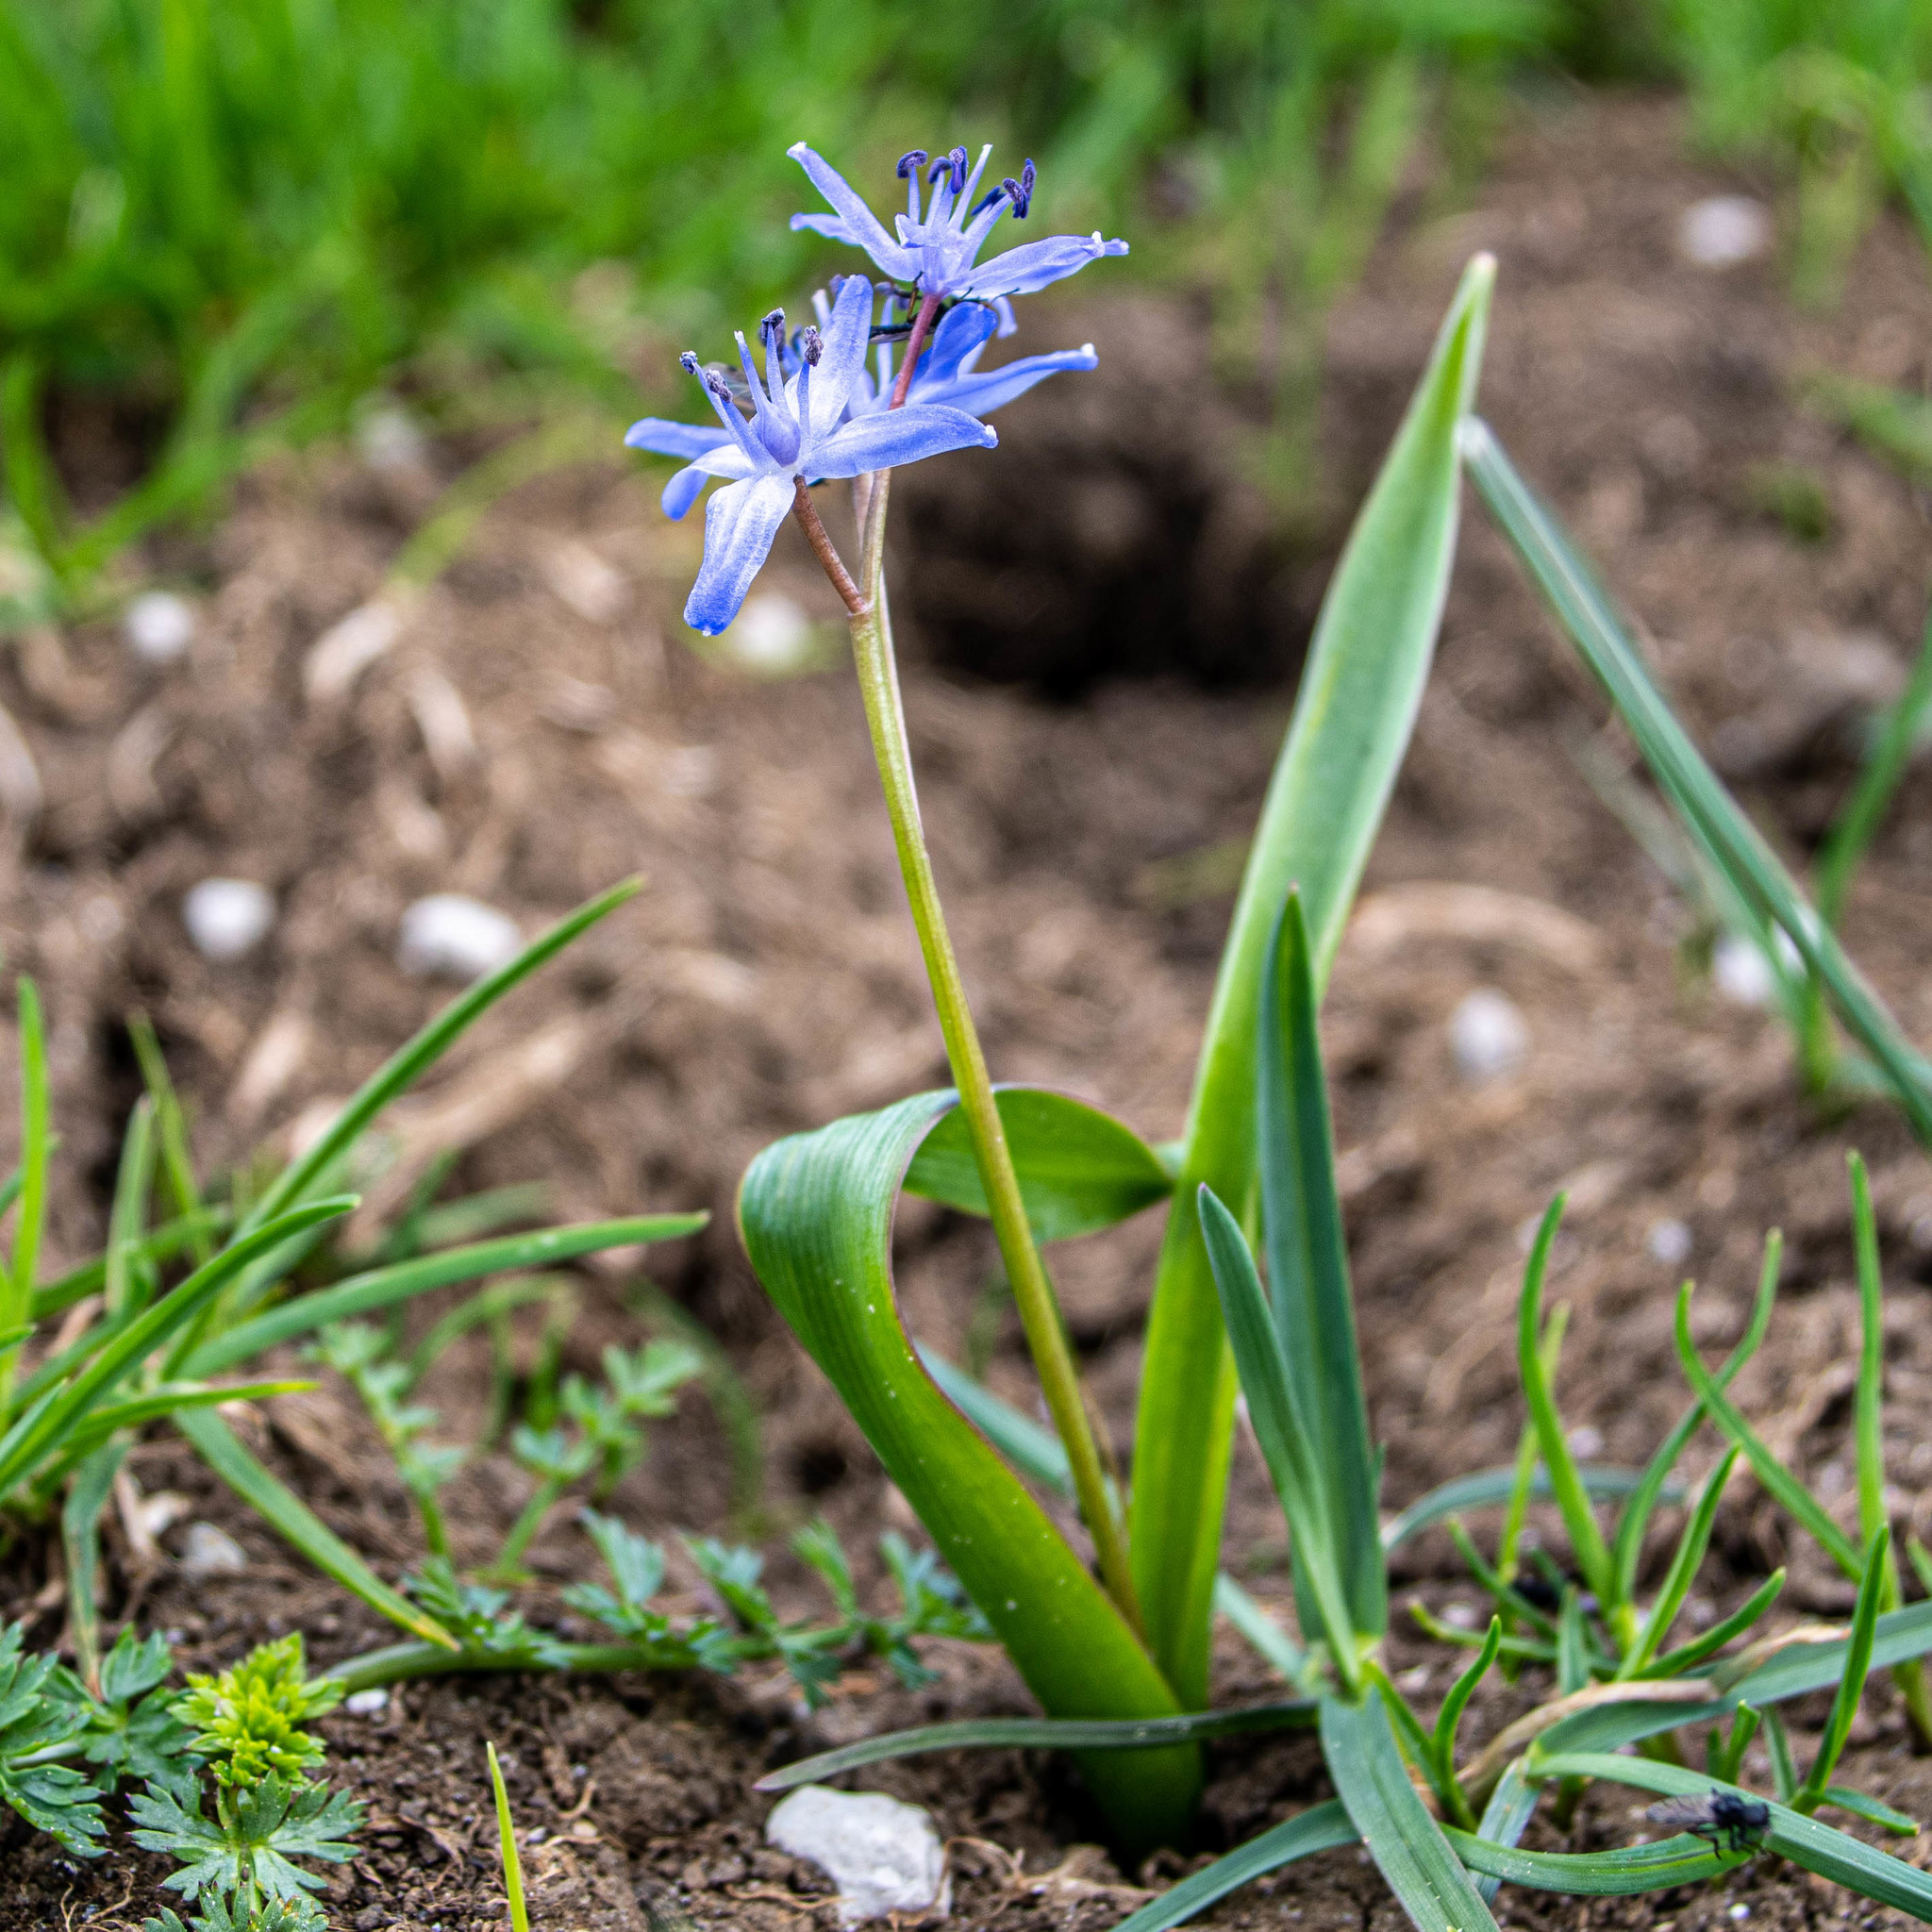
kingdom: Plantae
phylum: Tracheophyta
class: Liliopsida
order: Asparagales
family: Asparagaceae
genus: Scilla
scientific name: Scilla bifolia
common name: Alpine squill
